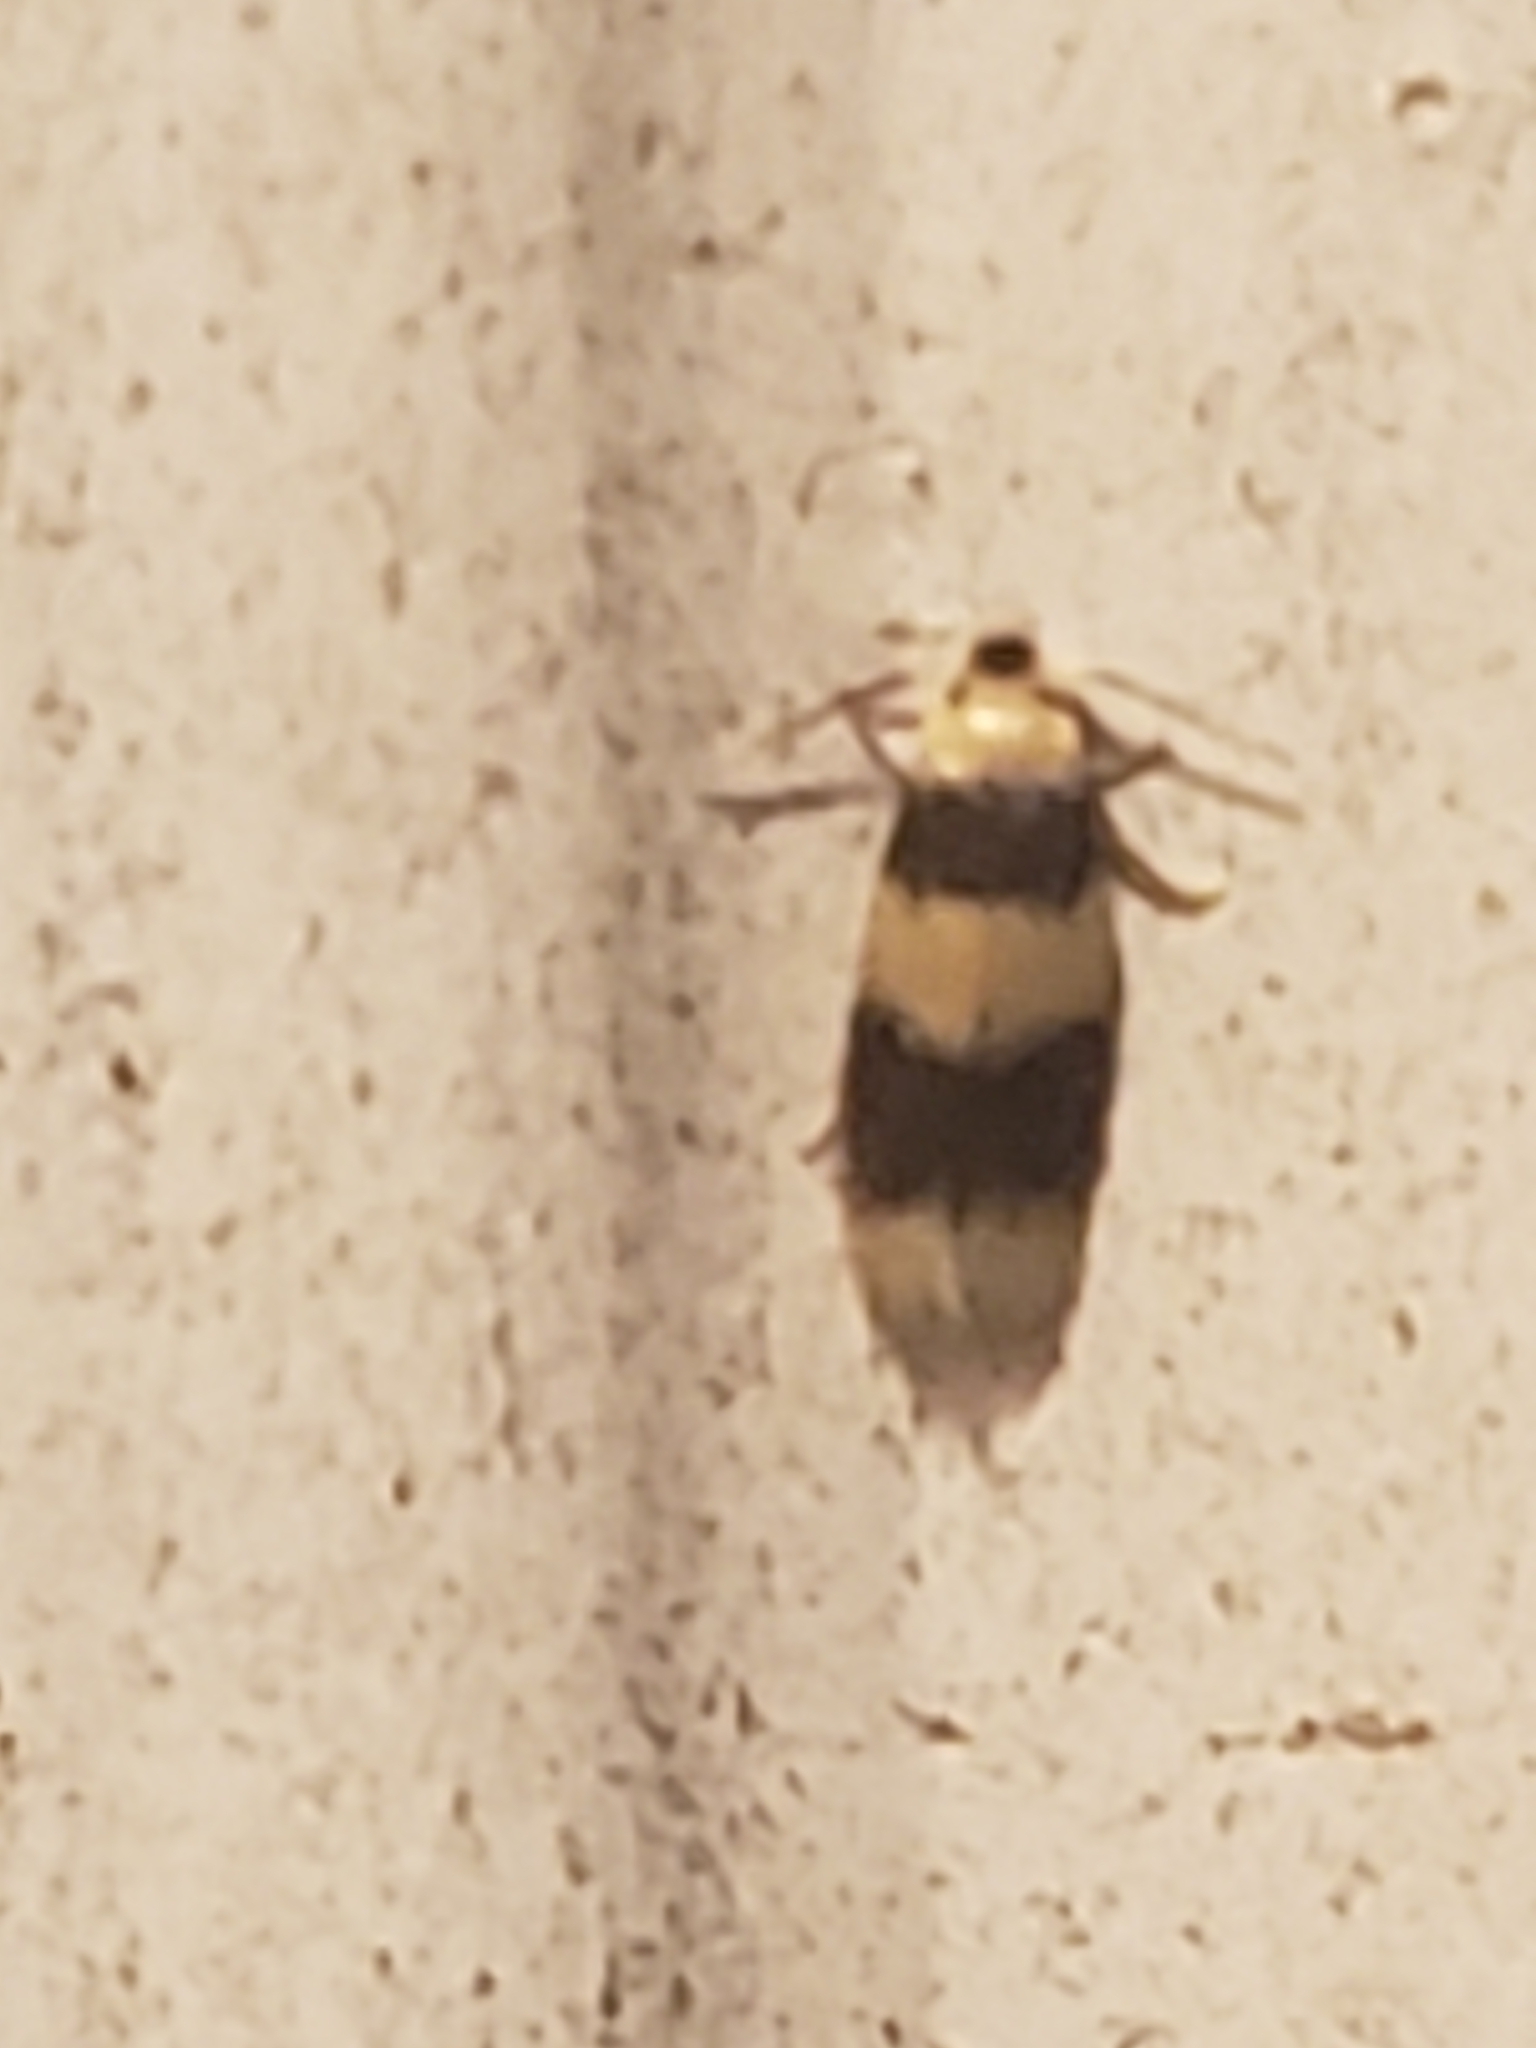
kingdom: Animalia
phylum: Arthropoda
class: Insecta
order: Lepidoptera
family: Nepticulidae
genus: Stigmella
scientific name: Stigmella nigriverticella
